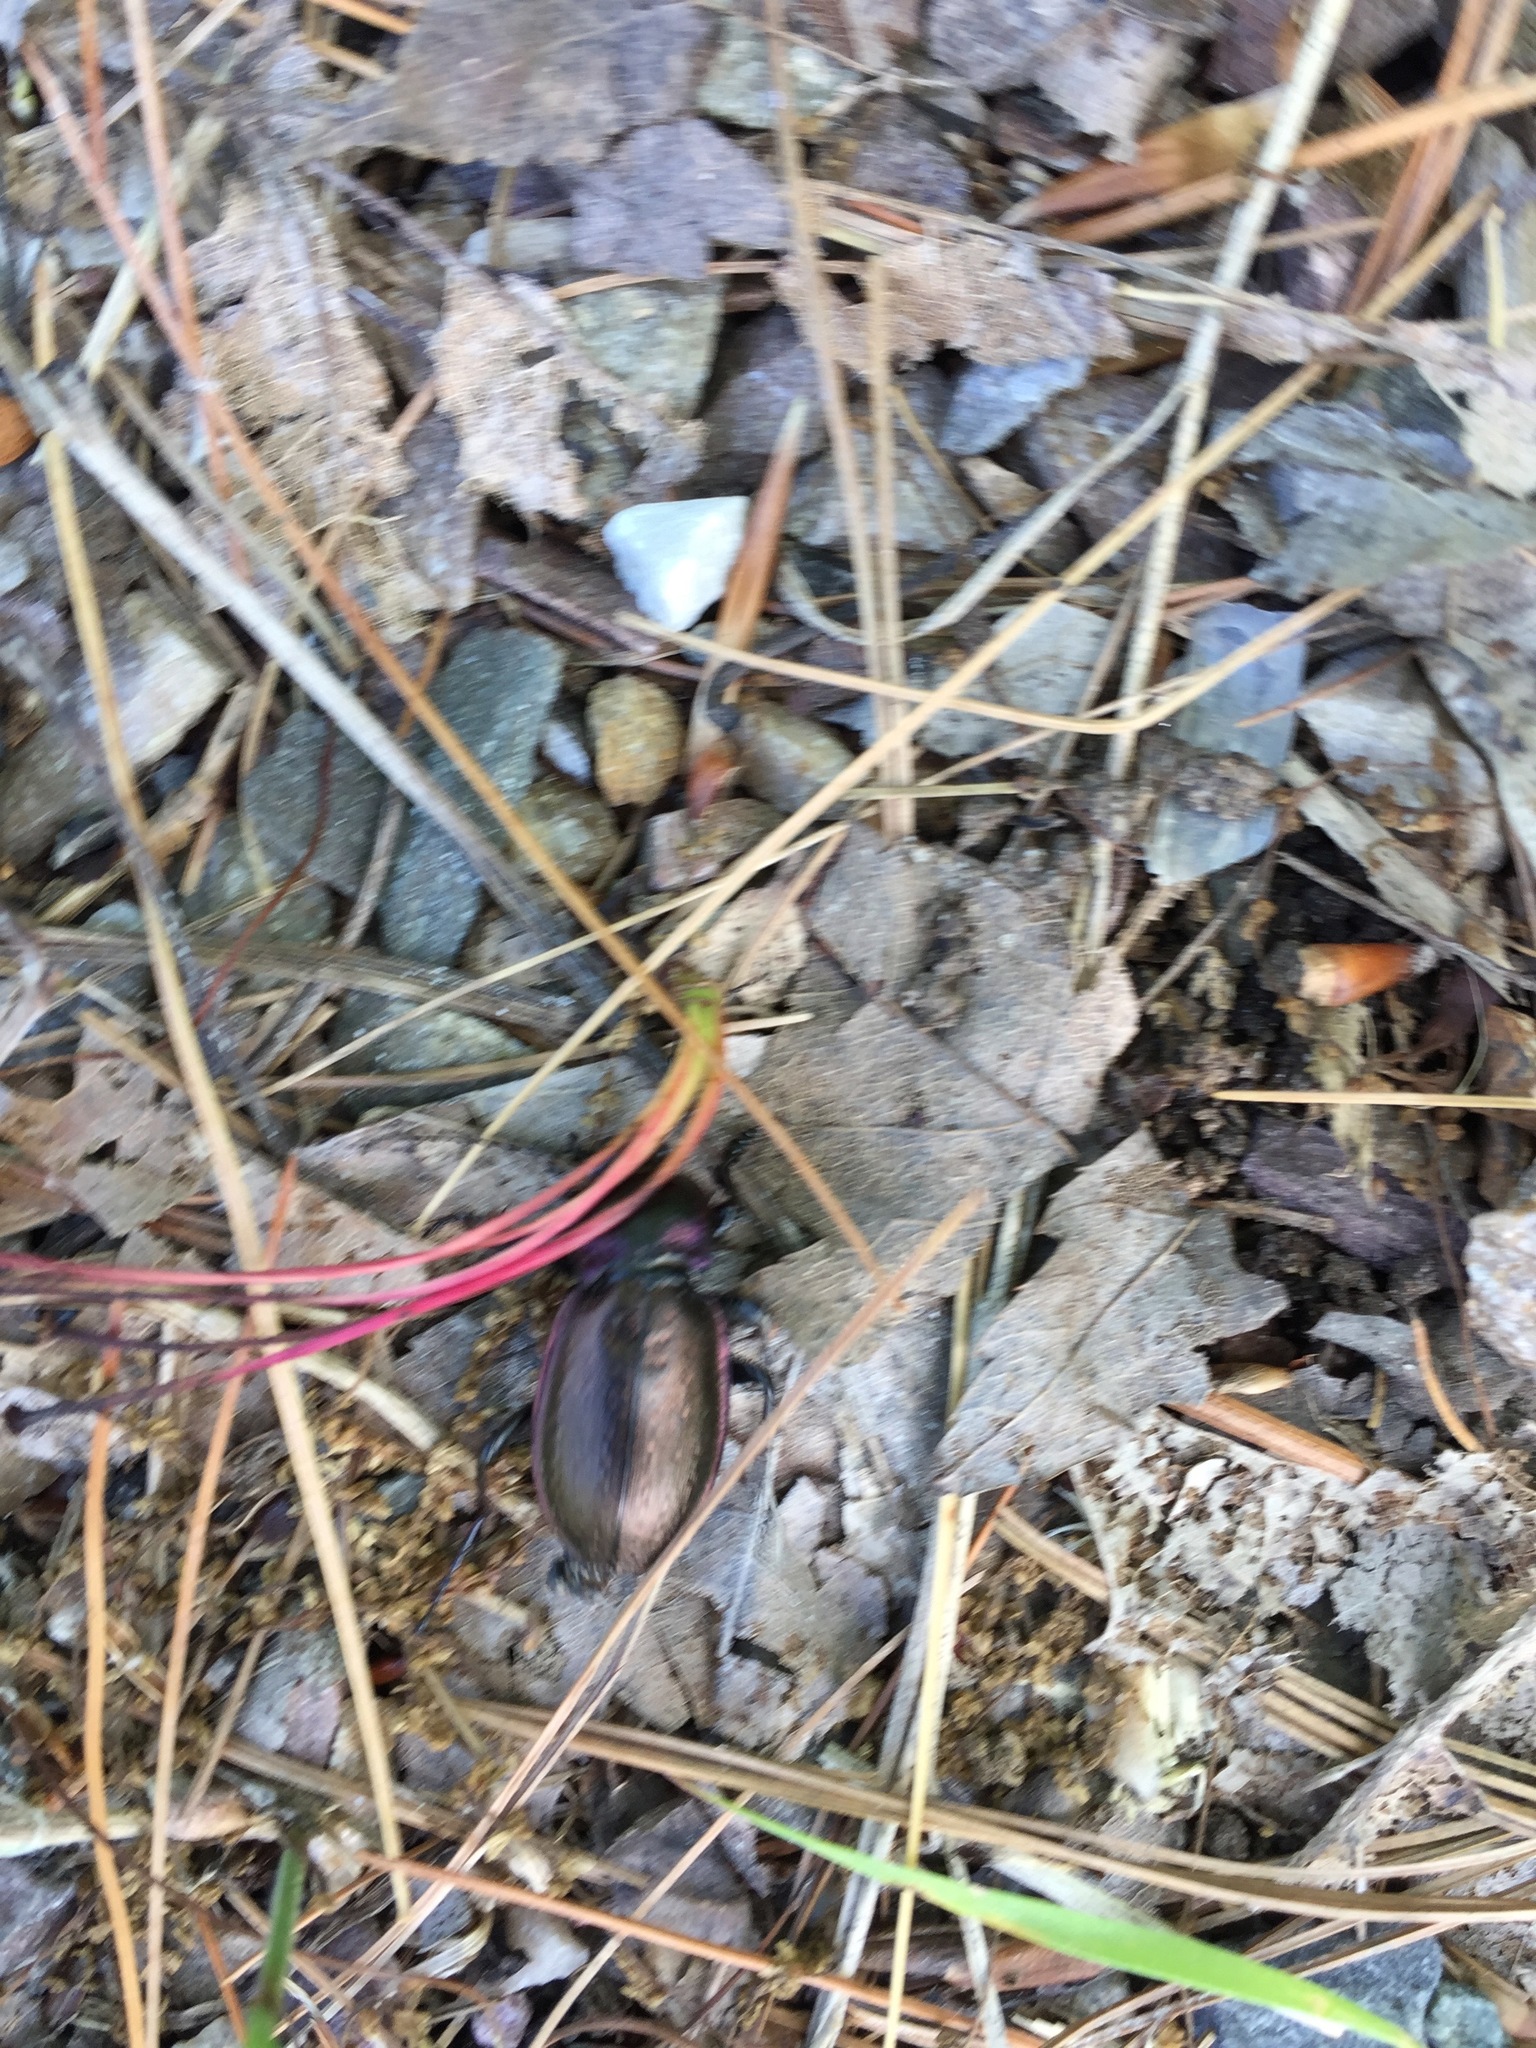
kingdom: Animalia
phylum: Arthropoda
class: Insecta
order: Coleoptera
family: Carabidae
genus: Carabus
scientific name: Carabus nemoralis
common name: European ground beetle
